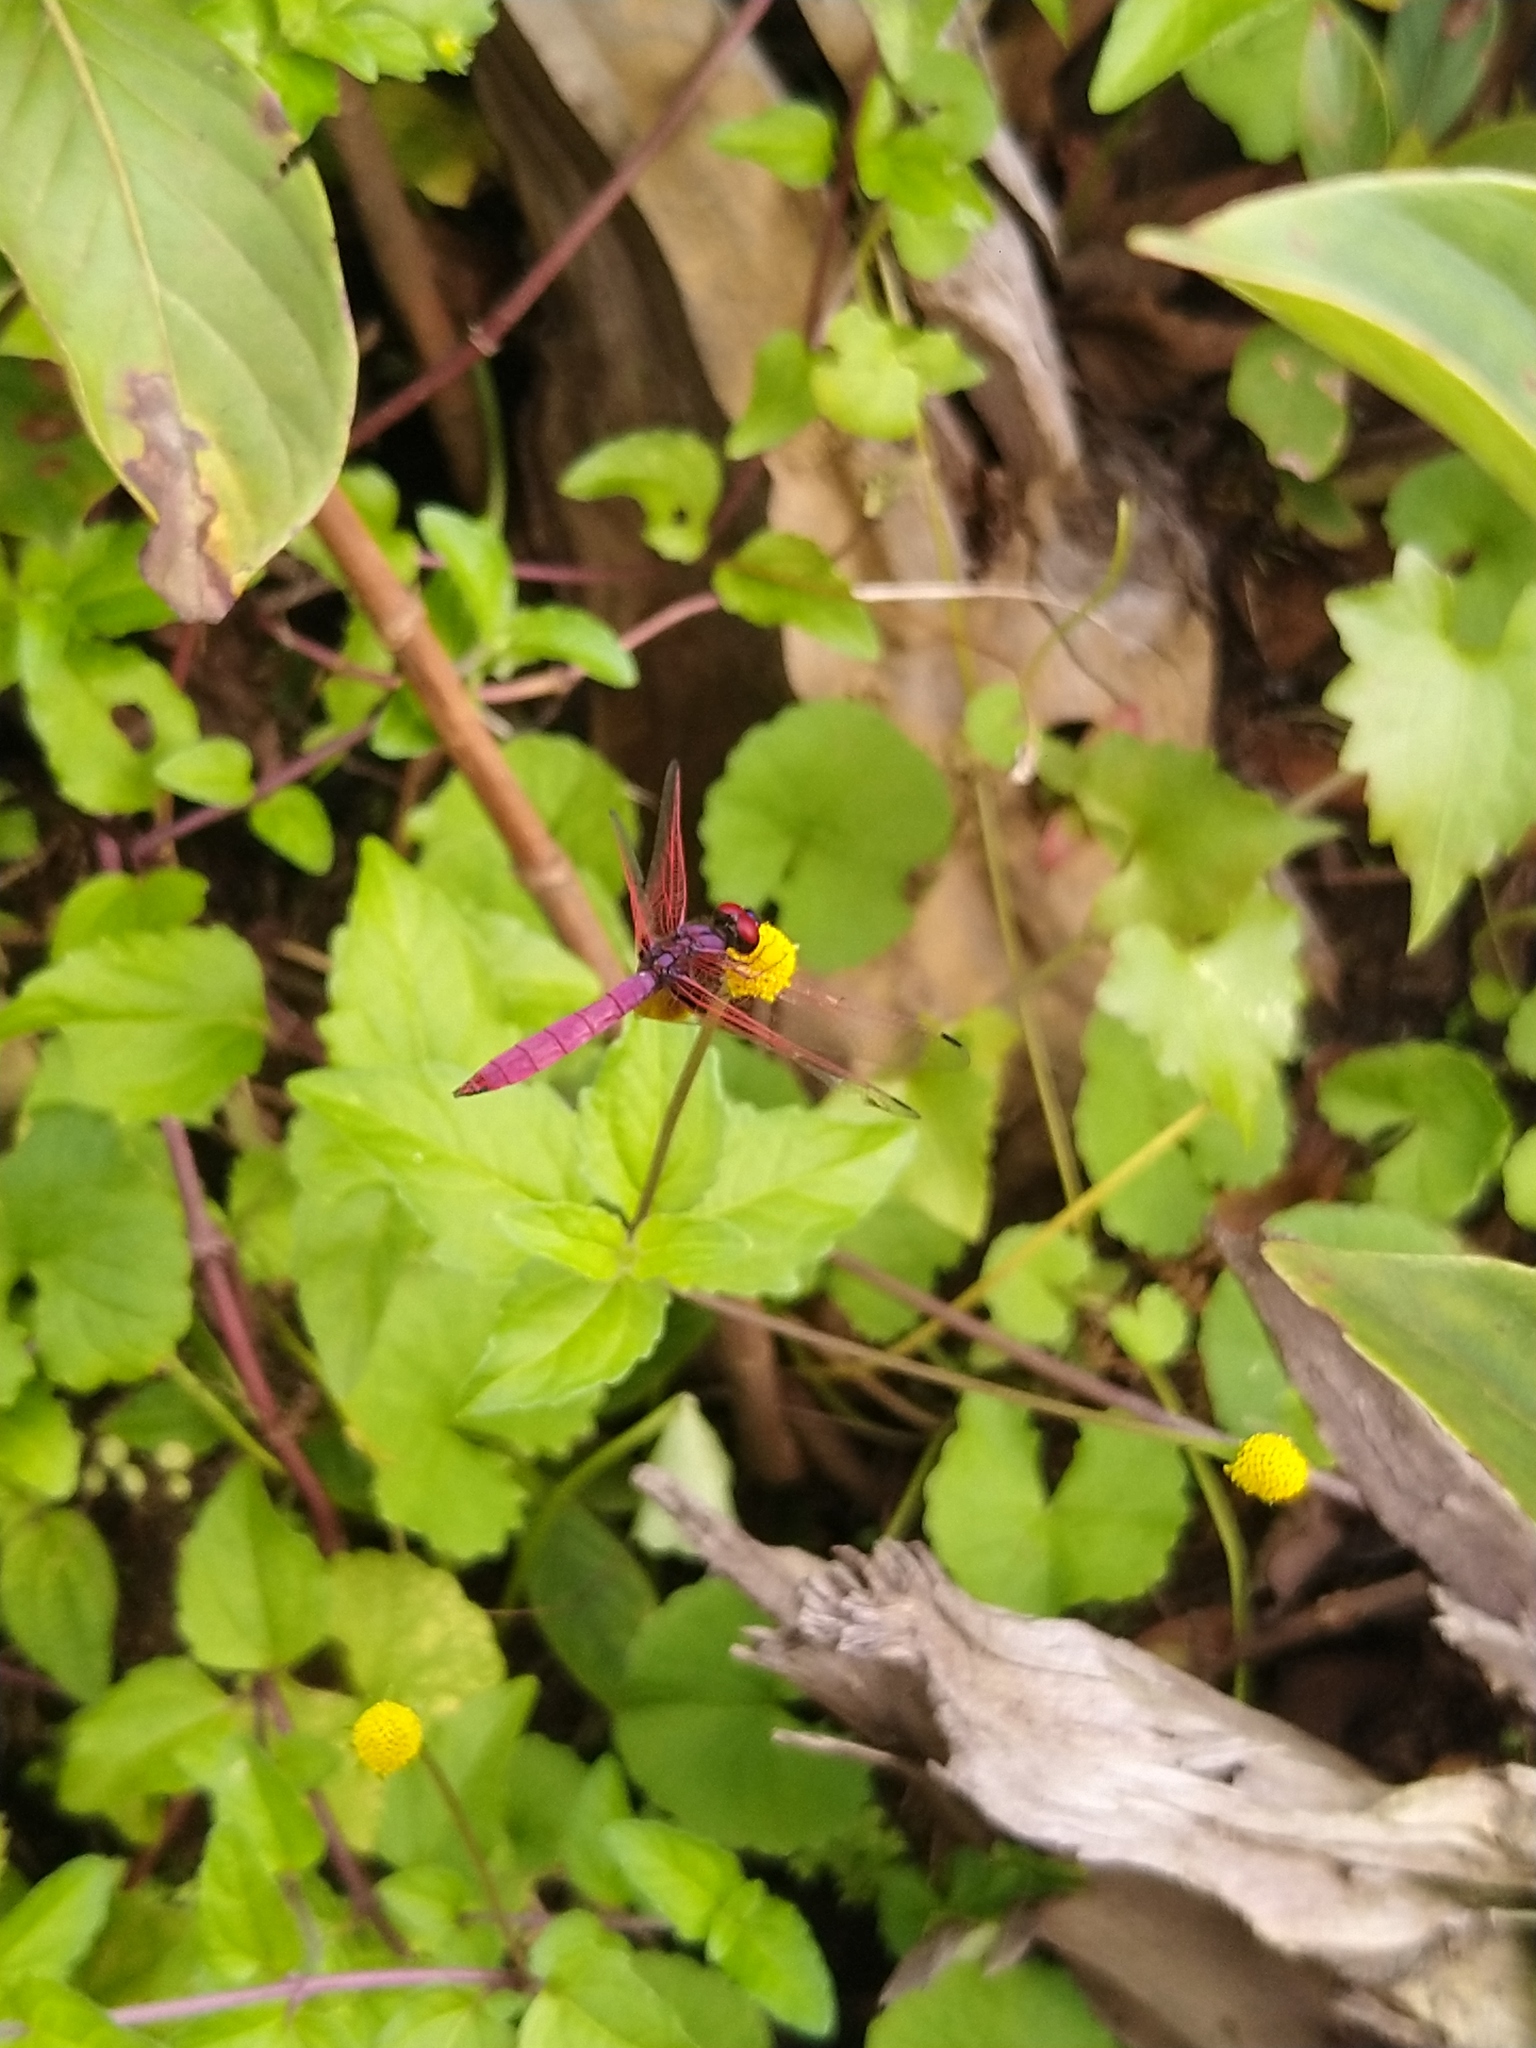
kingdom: Animalia
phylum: Arthropoda
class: Insecta
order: Odonata
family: Libellulidae
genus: Trithemis
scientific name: Trithemis aurora
